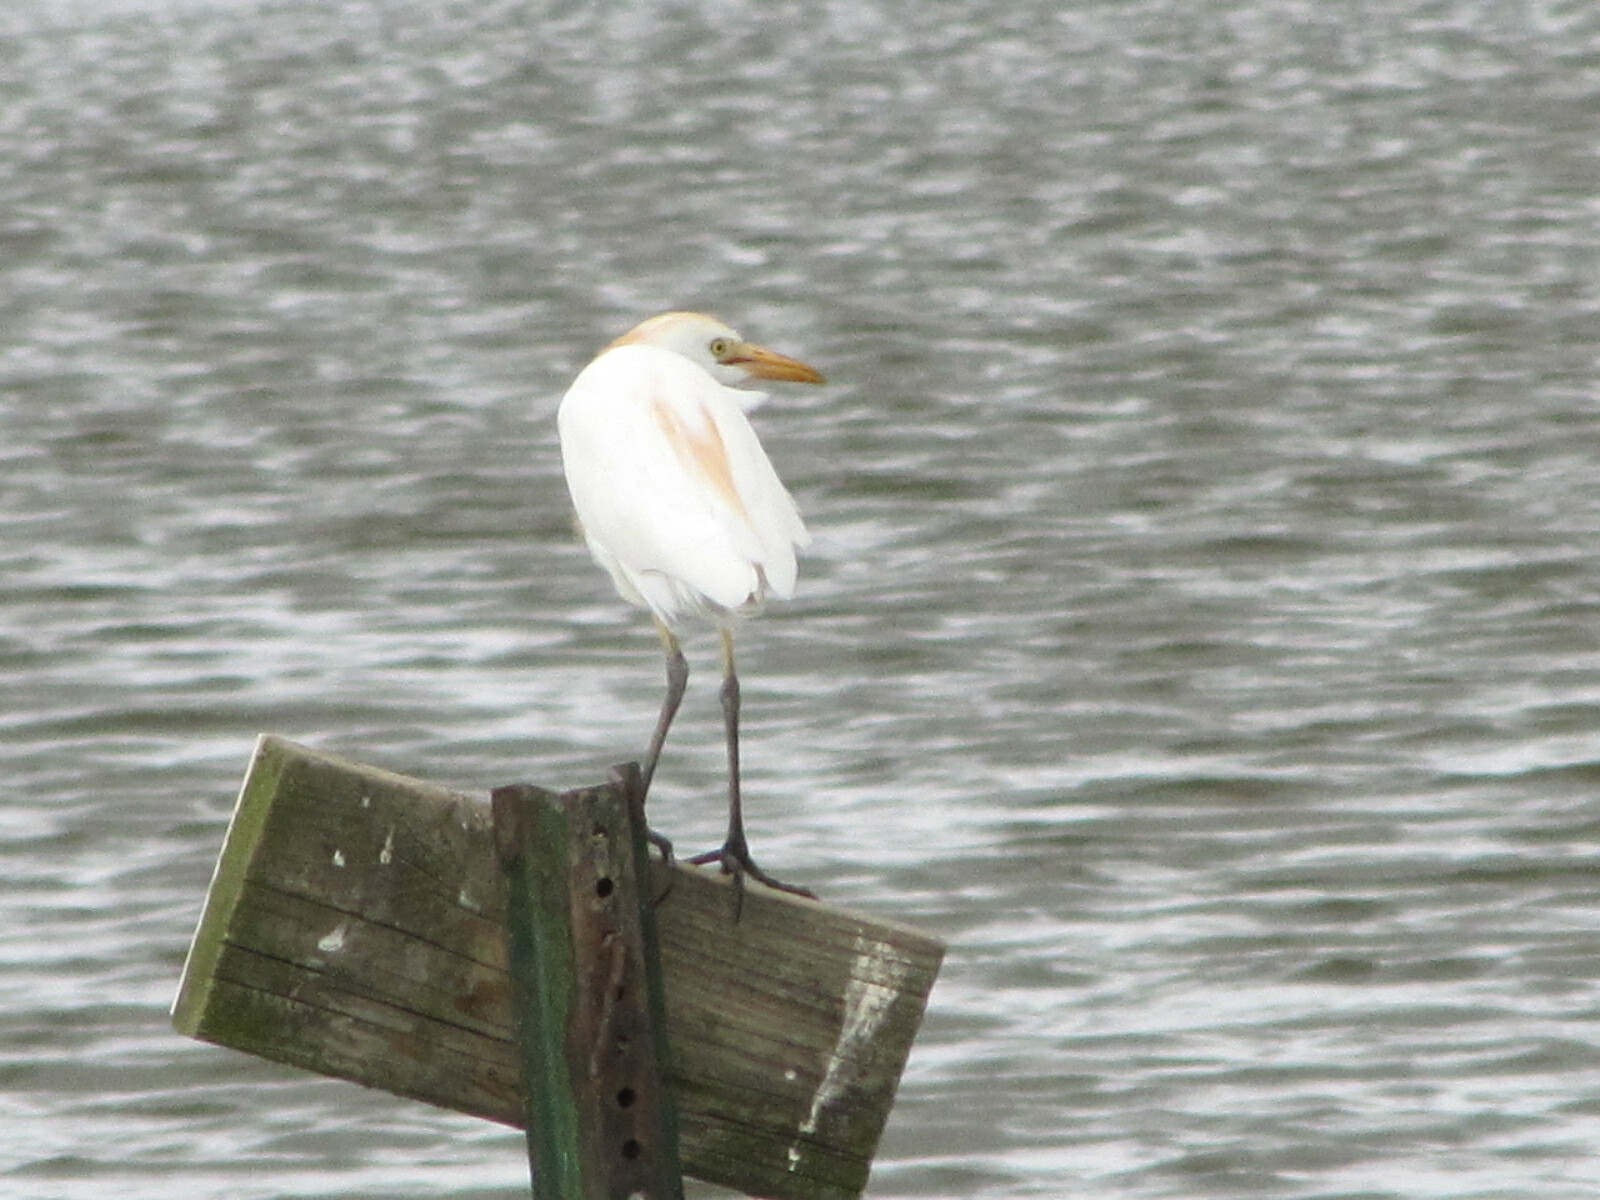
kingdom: Animalia
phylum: Chordata
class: Aves
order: Pelecaniformes
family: Ardeidae
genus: Bubulcus
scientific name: Bubulcus ibis
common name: Cattle egret
